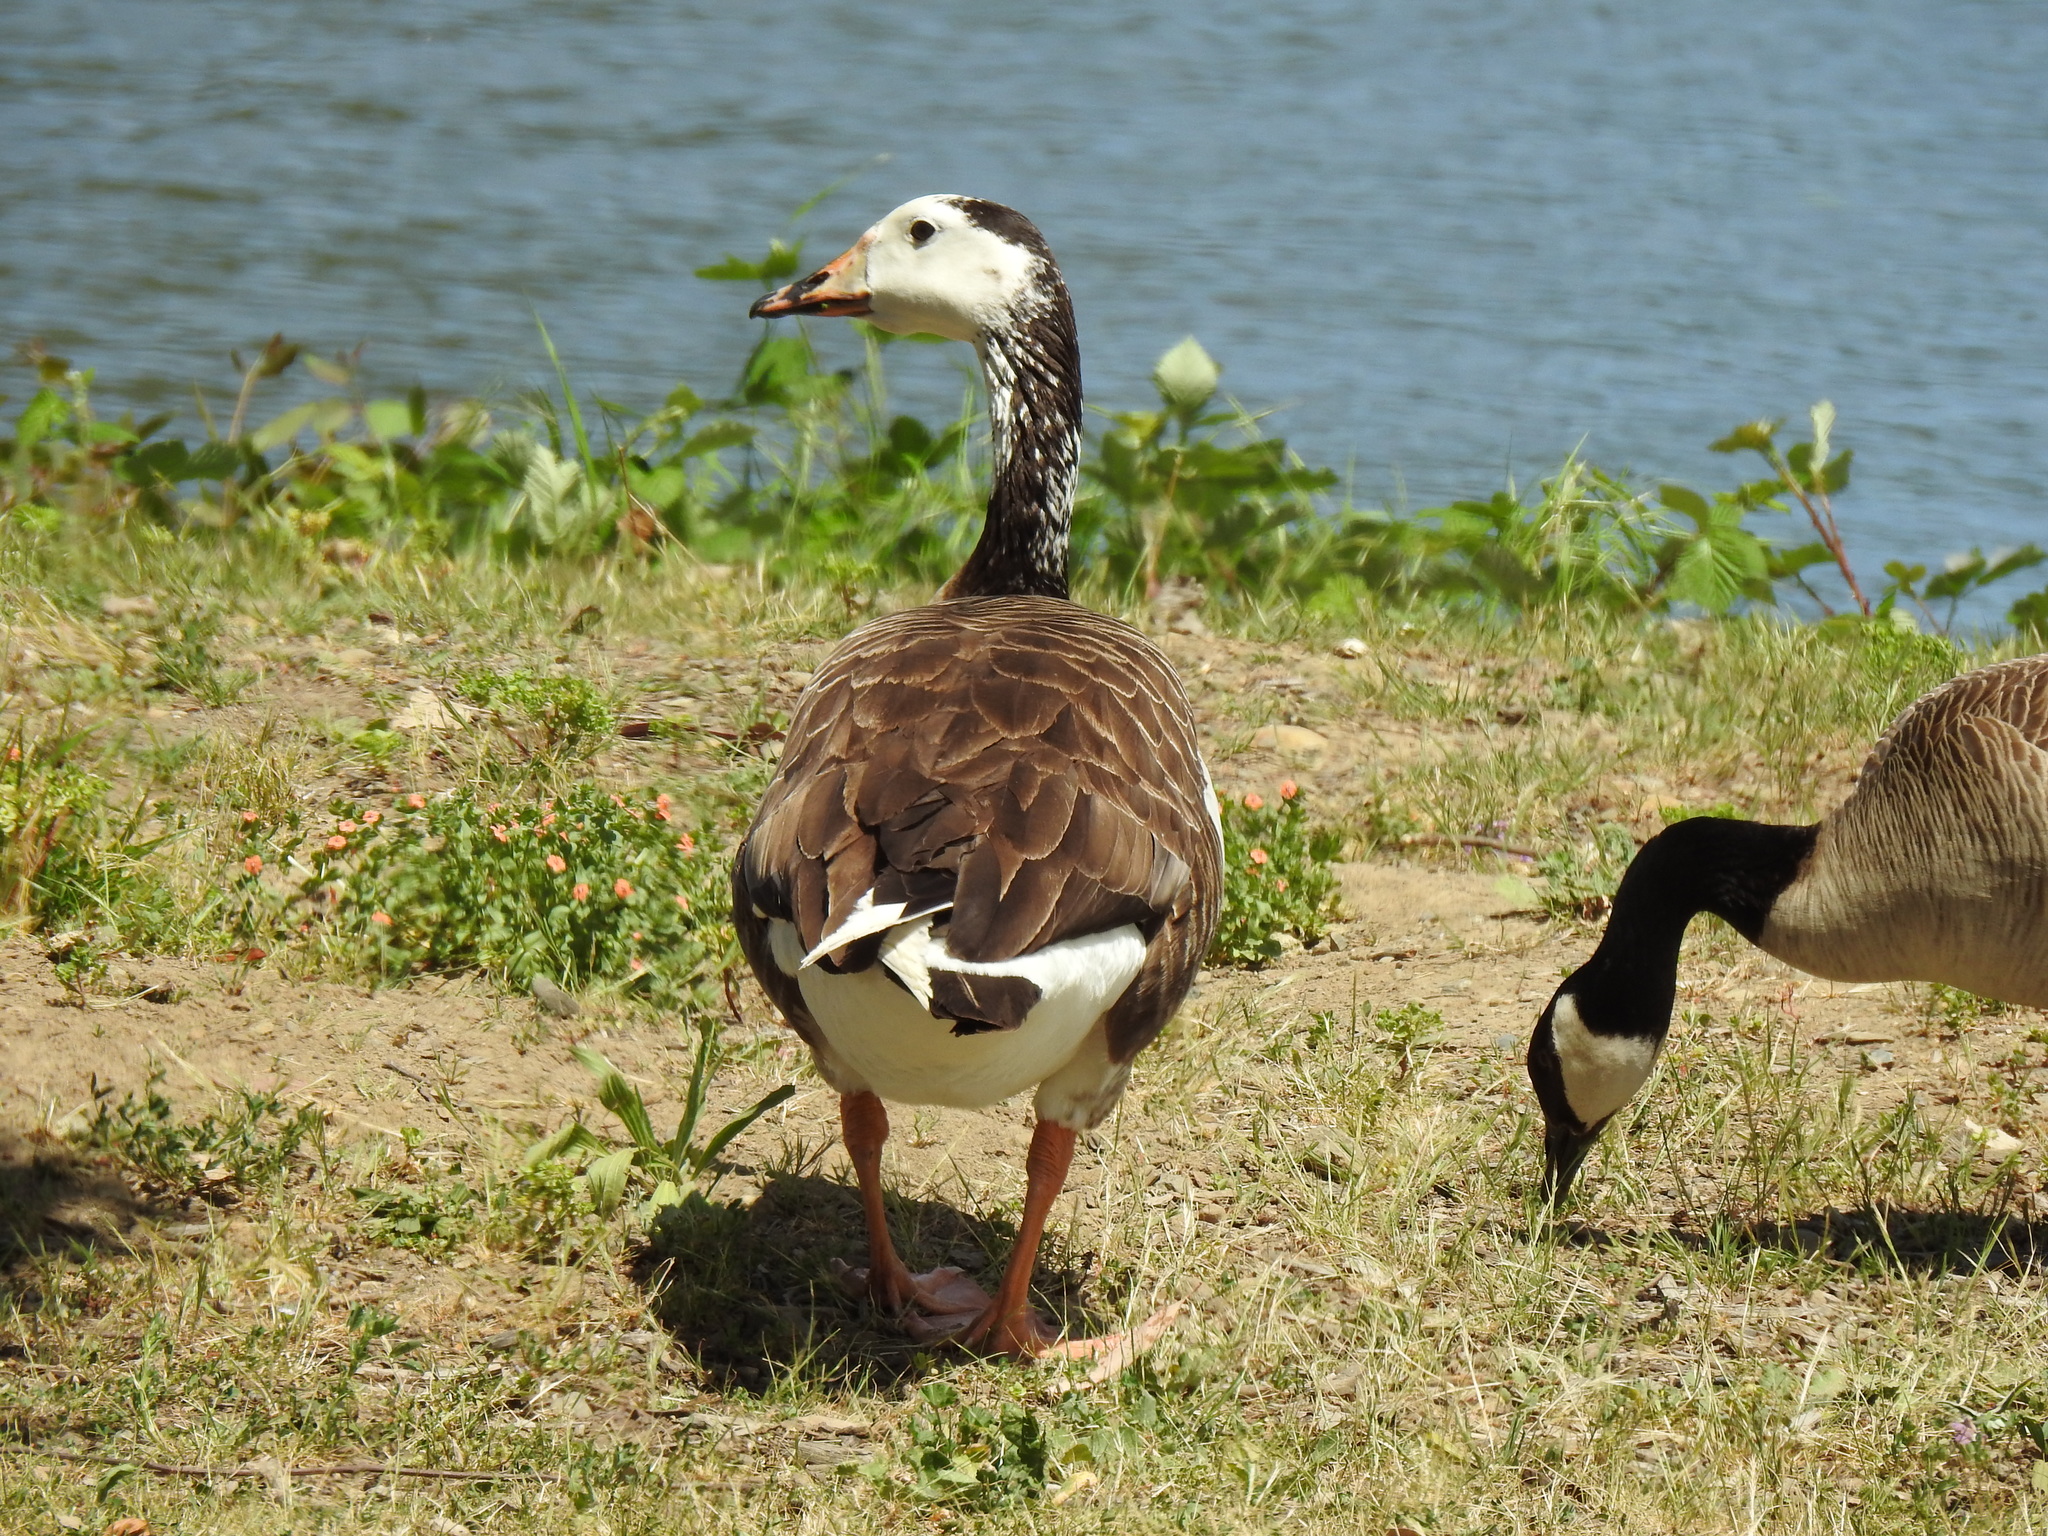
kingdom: Animalia
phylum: Chordata
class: Aves
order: Anseriformes
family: Anatidae
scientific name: Anatidae
